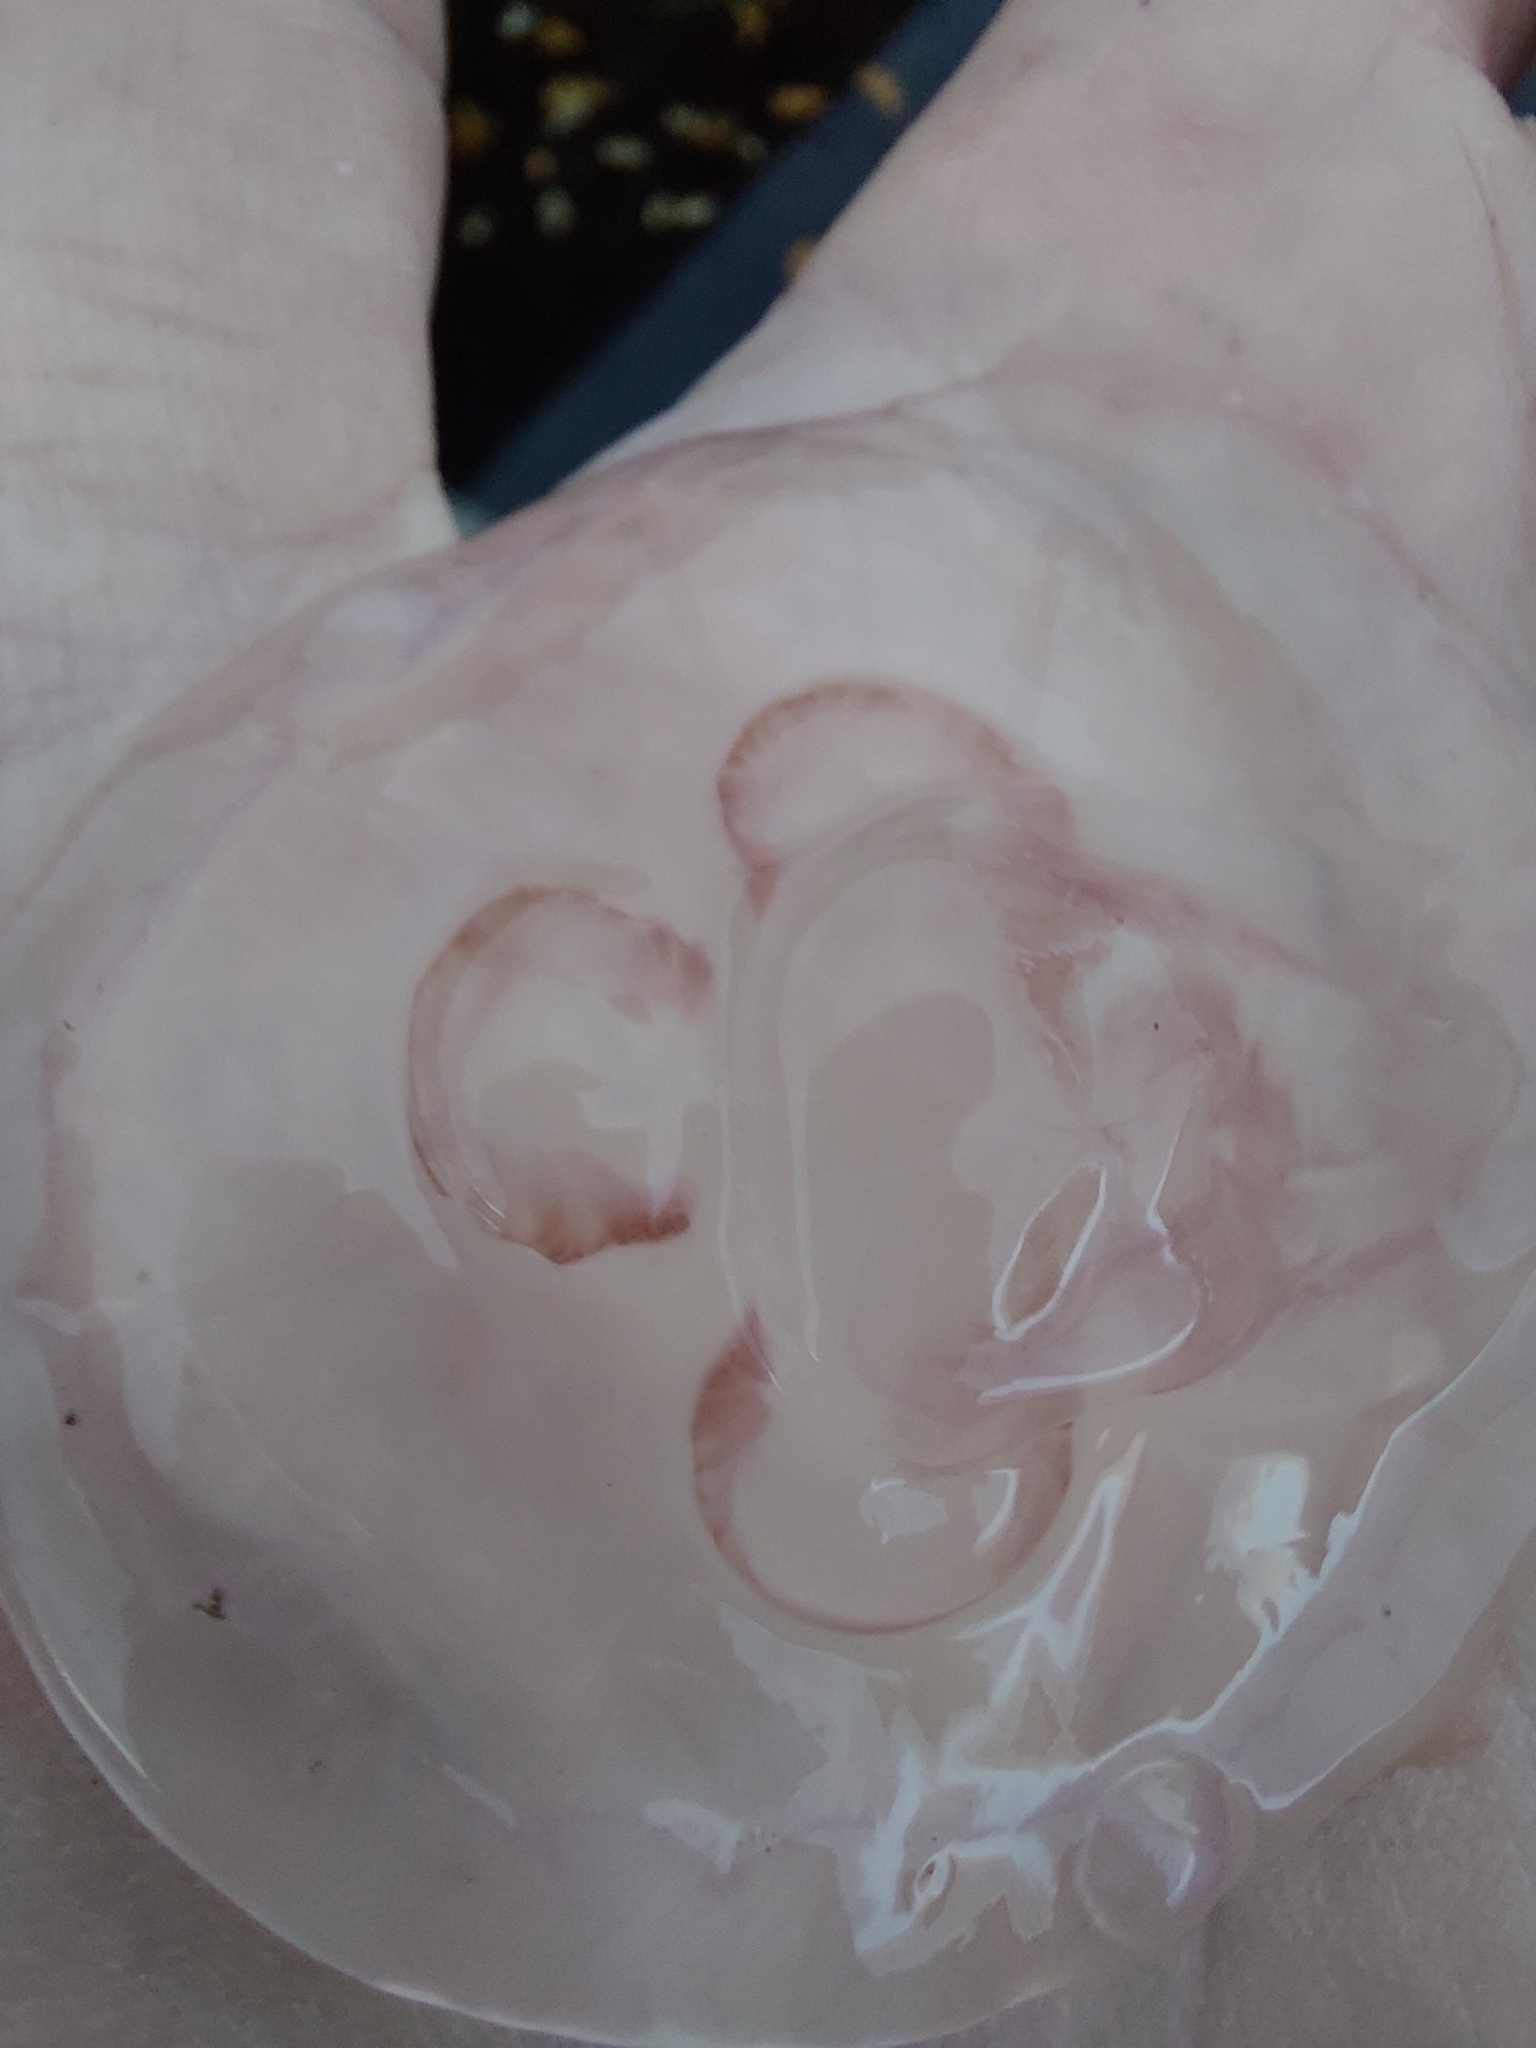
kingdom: Animalia
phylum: Cnidaria
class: Scyphozoa
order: Semaeostomeae
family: Ulmaridae
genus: Aurelia
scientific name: Aurelia aurita
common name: Moon jellyfish
